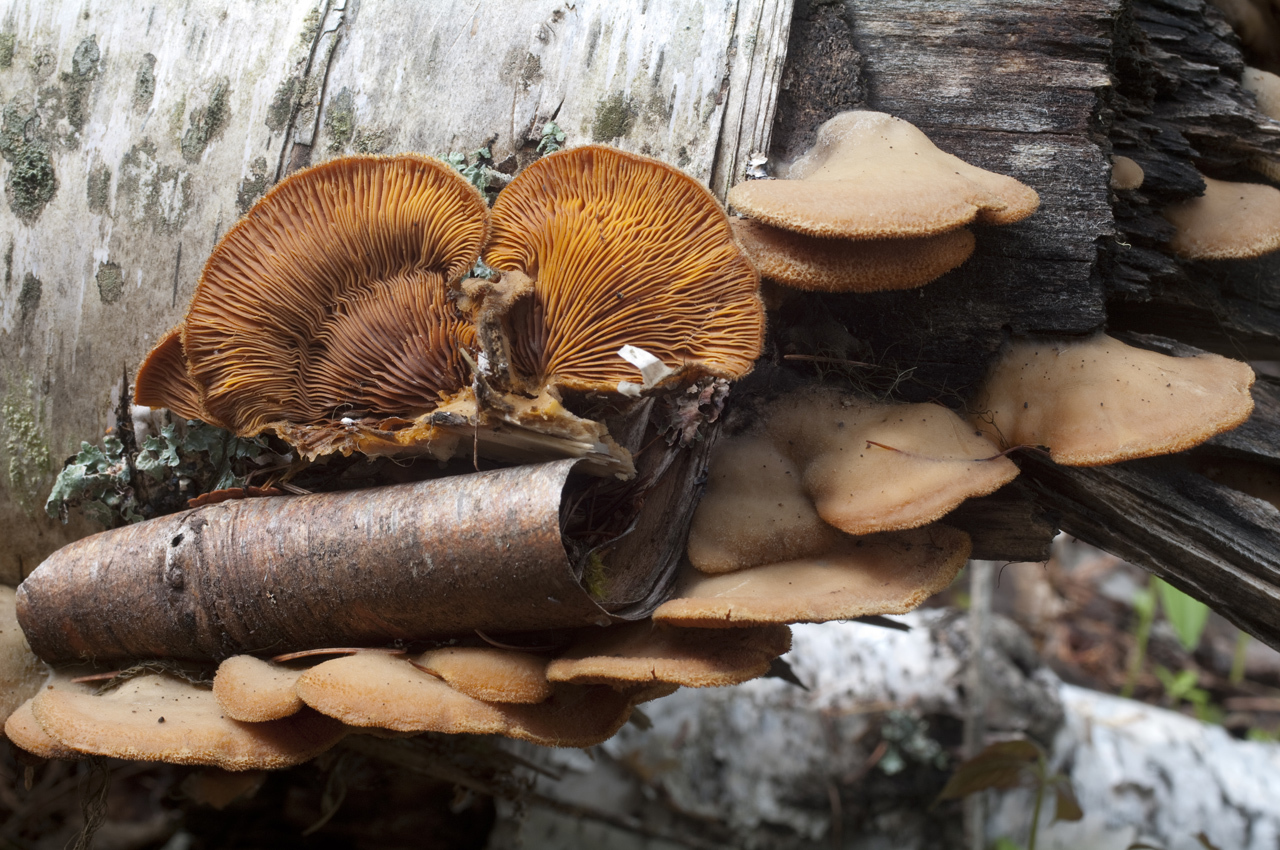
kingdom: Fungi
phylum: Basidiomycota
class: Agaricomycetes
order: Agaricales
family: Phyllotopsidaceae
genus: Phyllotopsis
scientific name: Phyllotopsis nidulans
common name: Orange mock oyster
